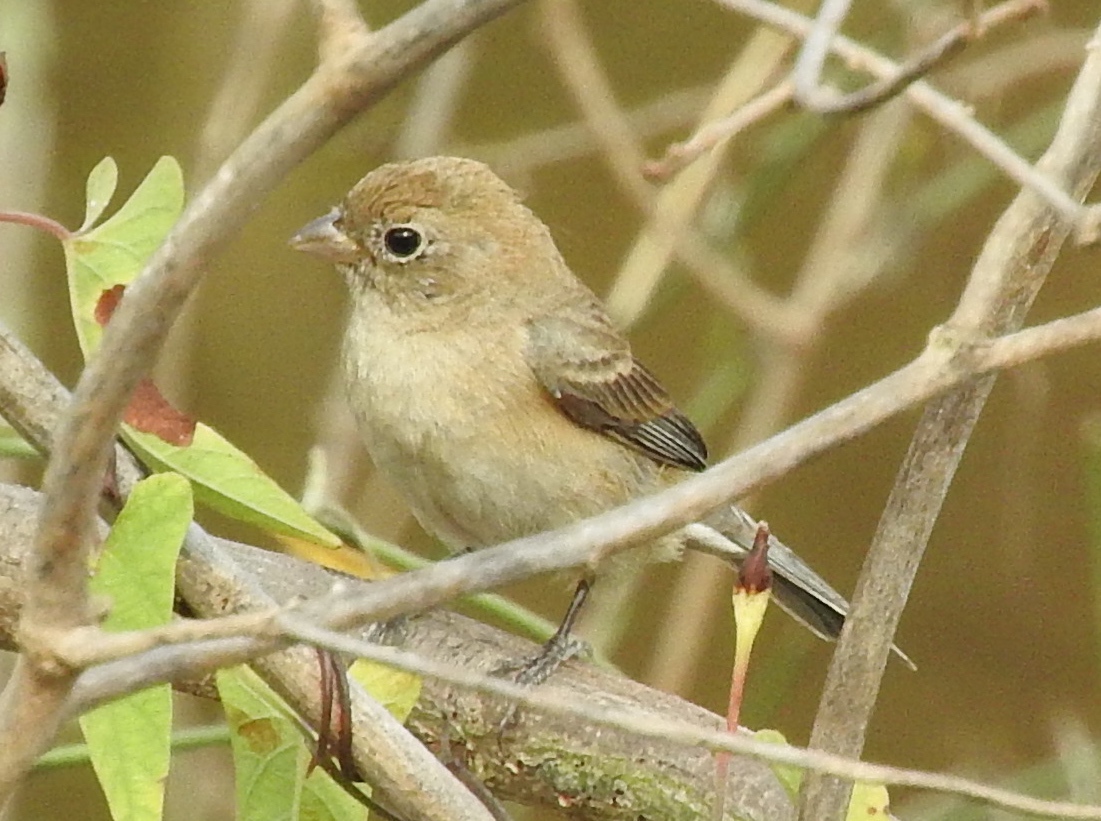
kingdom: Animalia
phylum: Chordata
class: Aves
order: Passeriformes
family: Thraupidae
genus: Sporophila
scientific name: Sporophila torqueola
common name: White-collared seedeater
